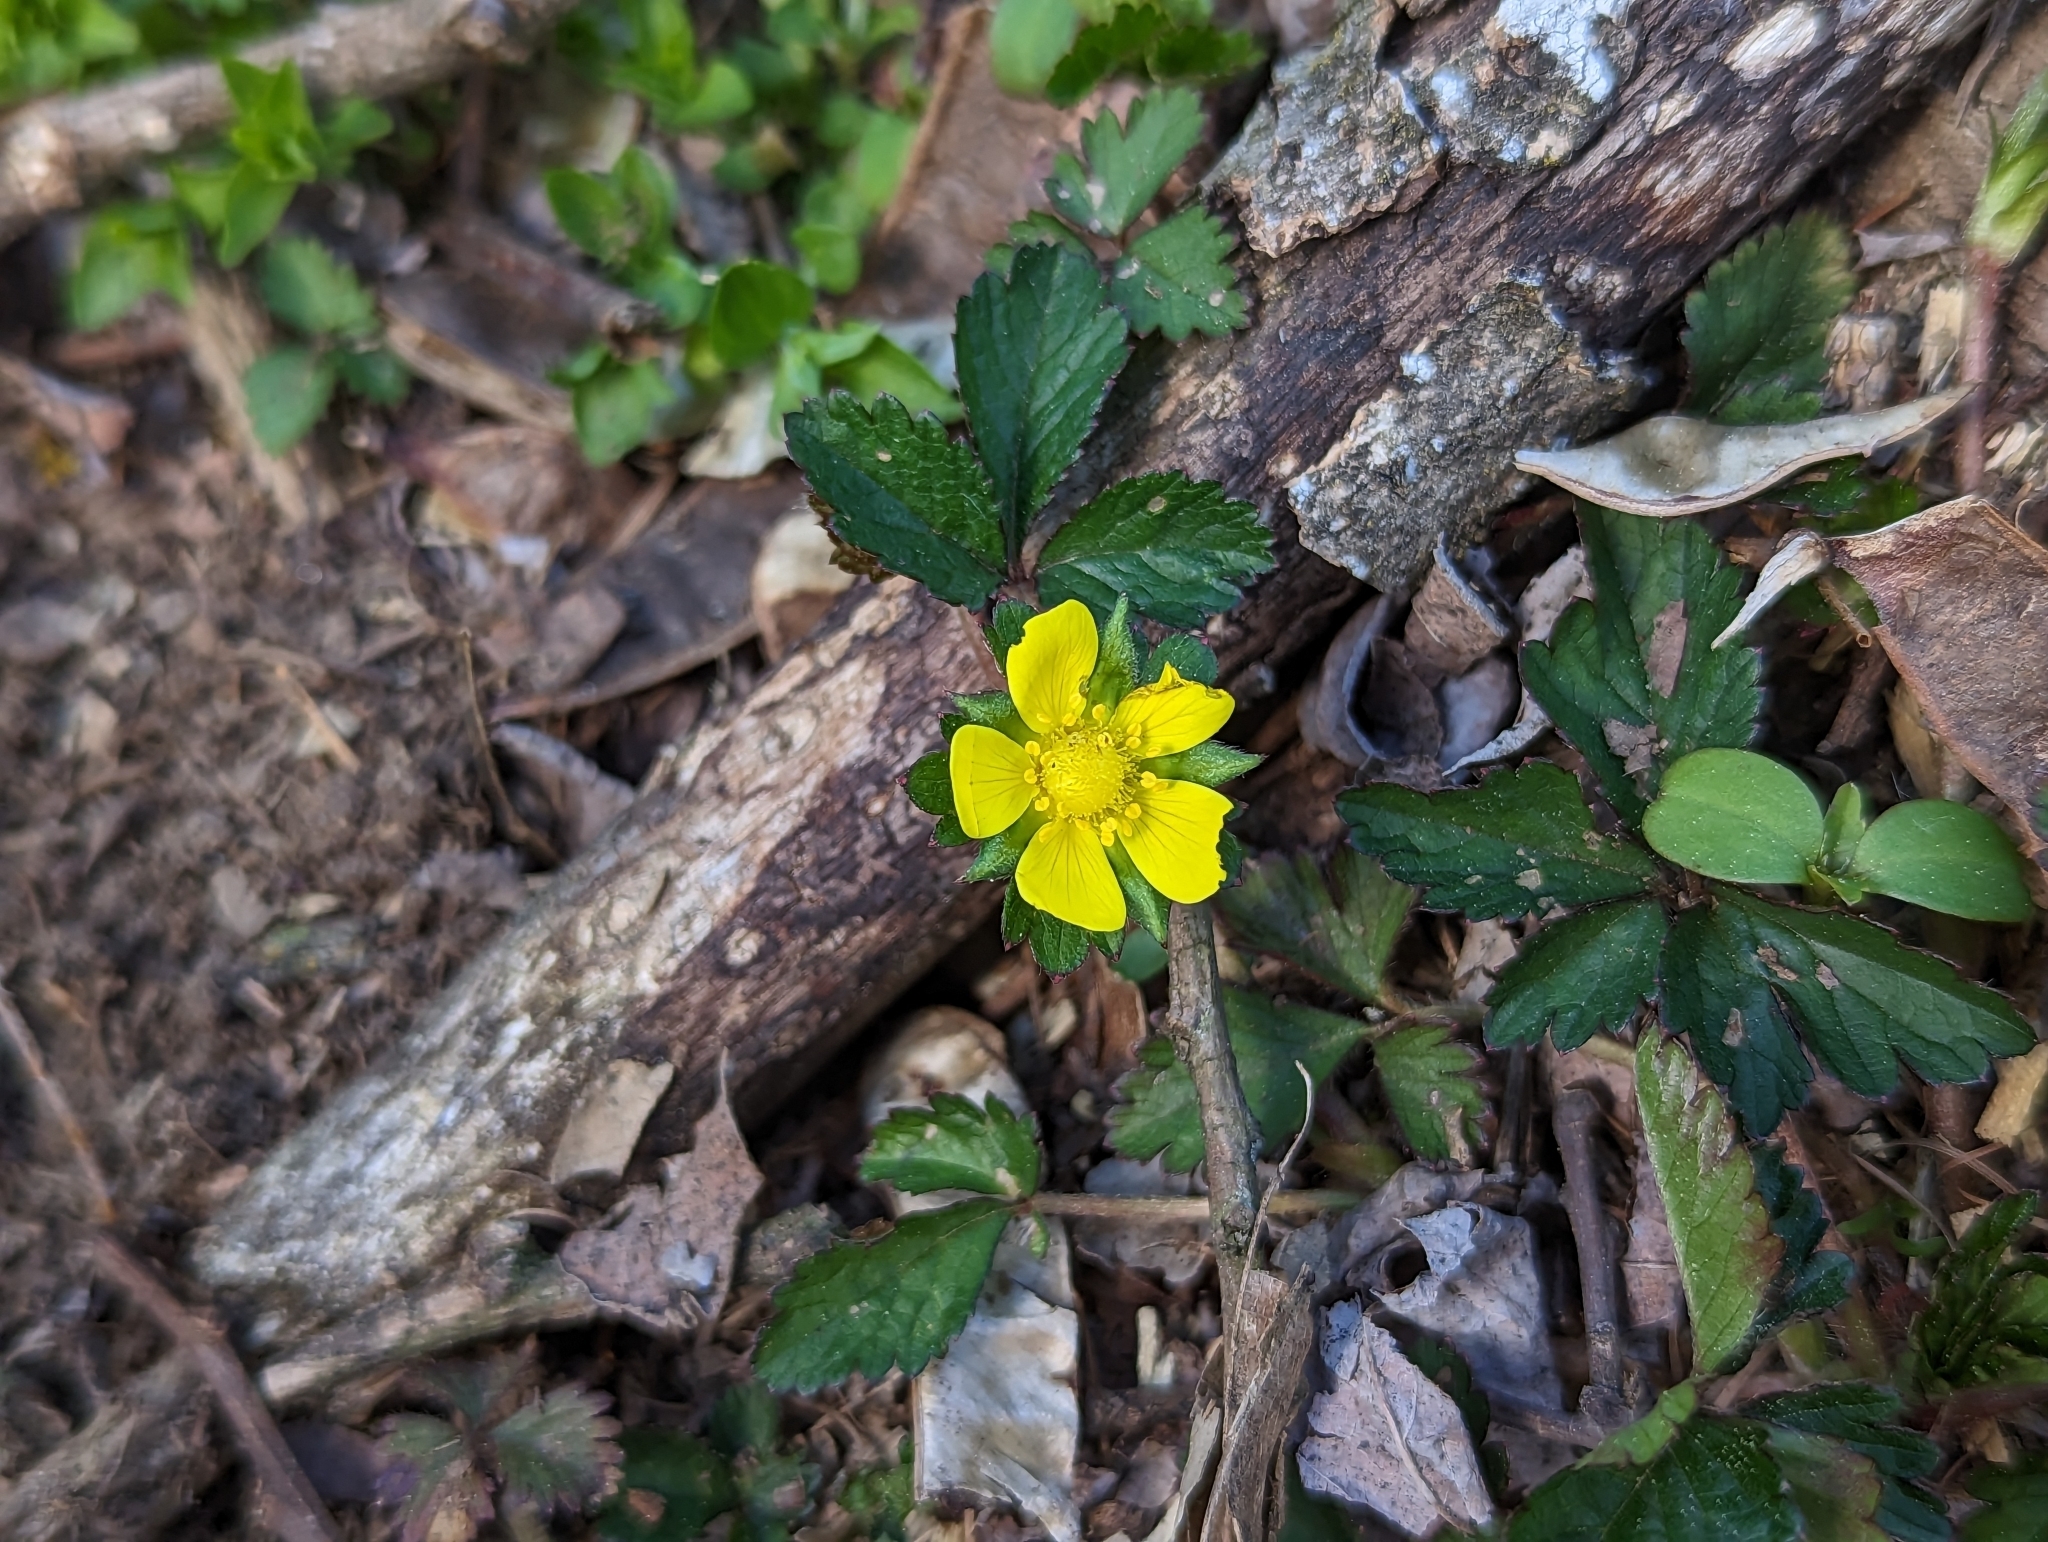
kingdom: Plantae
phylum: Tracheophyta
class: Magnoliopsida
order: Rosales
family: Rosaceae
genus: Potentilla
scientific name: Potentilla indica
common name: Yellow-flowered strawberry
